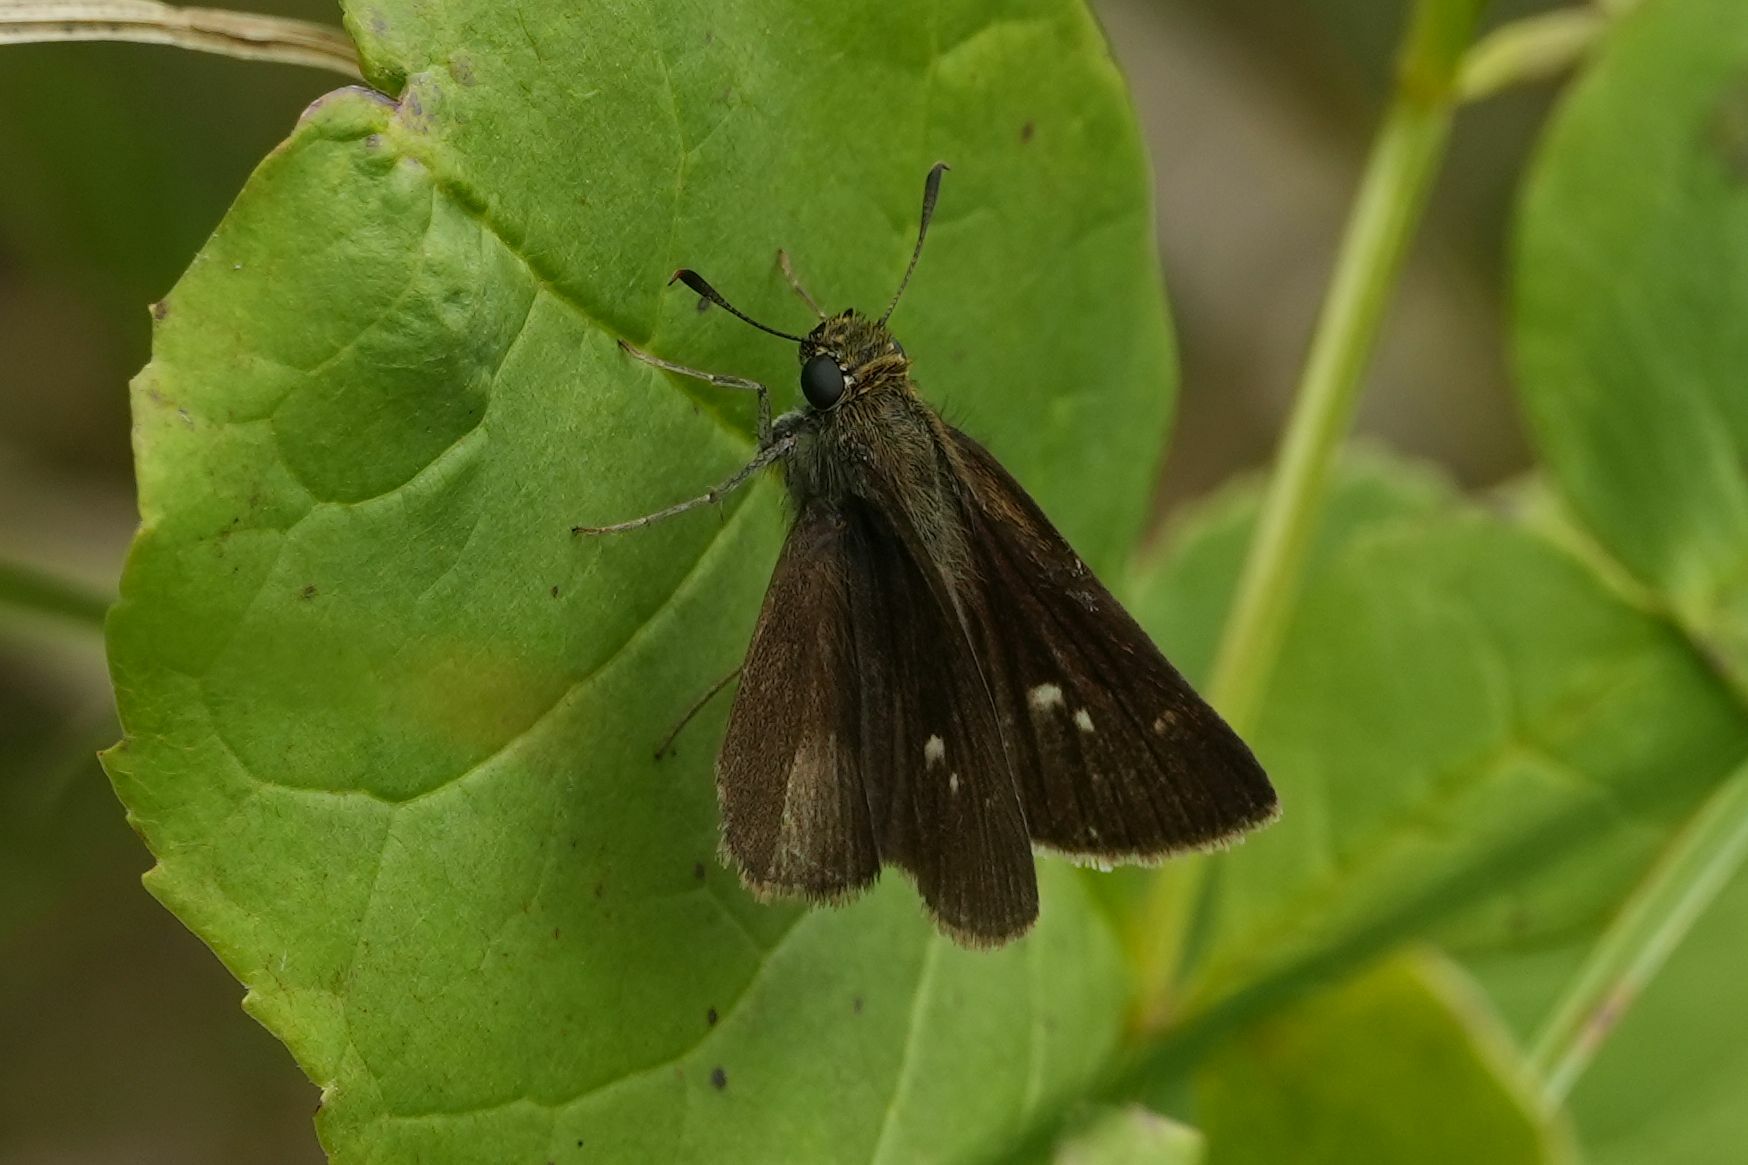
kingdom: Animalia
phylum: Arthropoda
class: Insecta
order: Lepidoptera
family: Hesperiidae
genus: Euphyes
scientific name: Euphyes vestris
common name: Dun skipper
